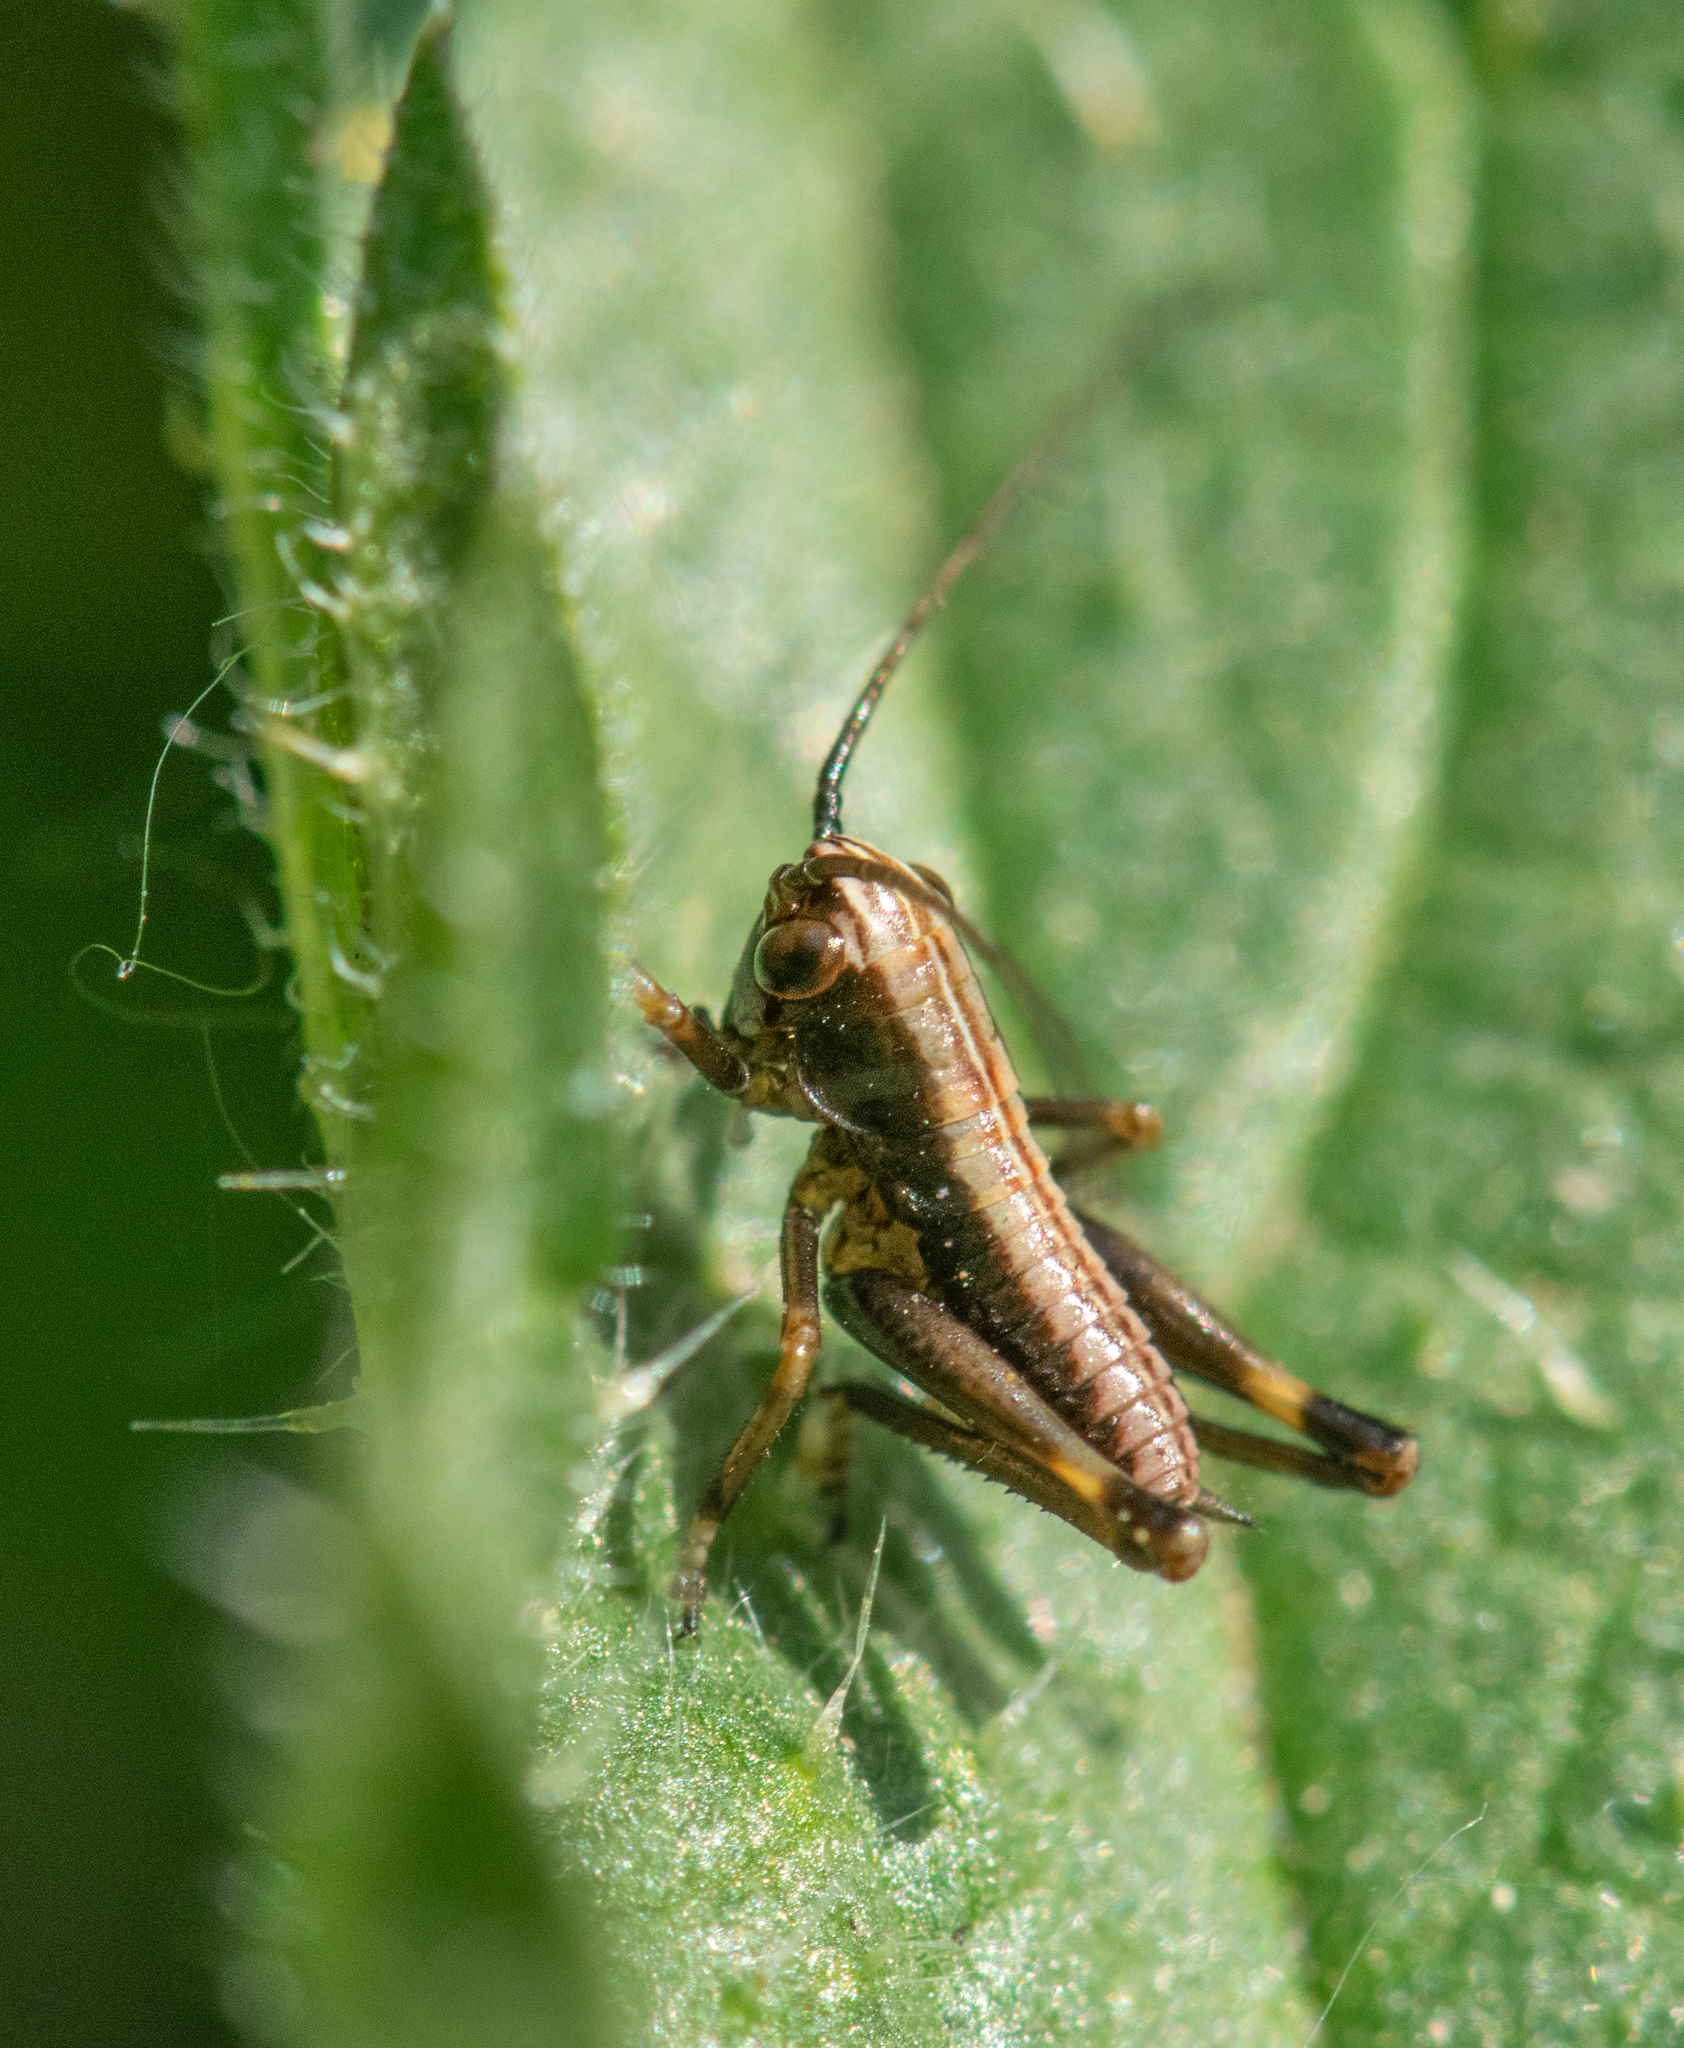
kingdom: Animalia
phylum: Arthropoda
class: Insecta
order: Orthoptera
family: Tettigoniidae
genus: Pholidoptera
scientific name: Pholidoptera griseoaptera
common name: Dark bush-cricket
